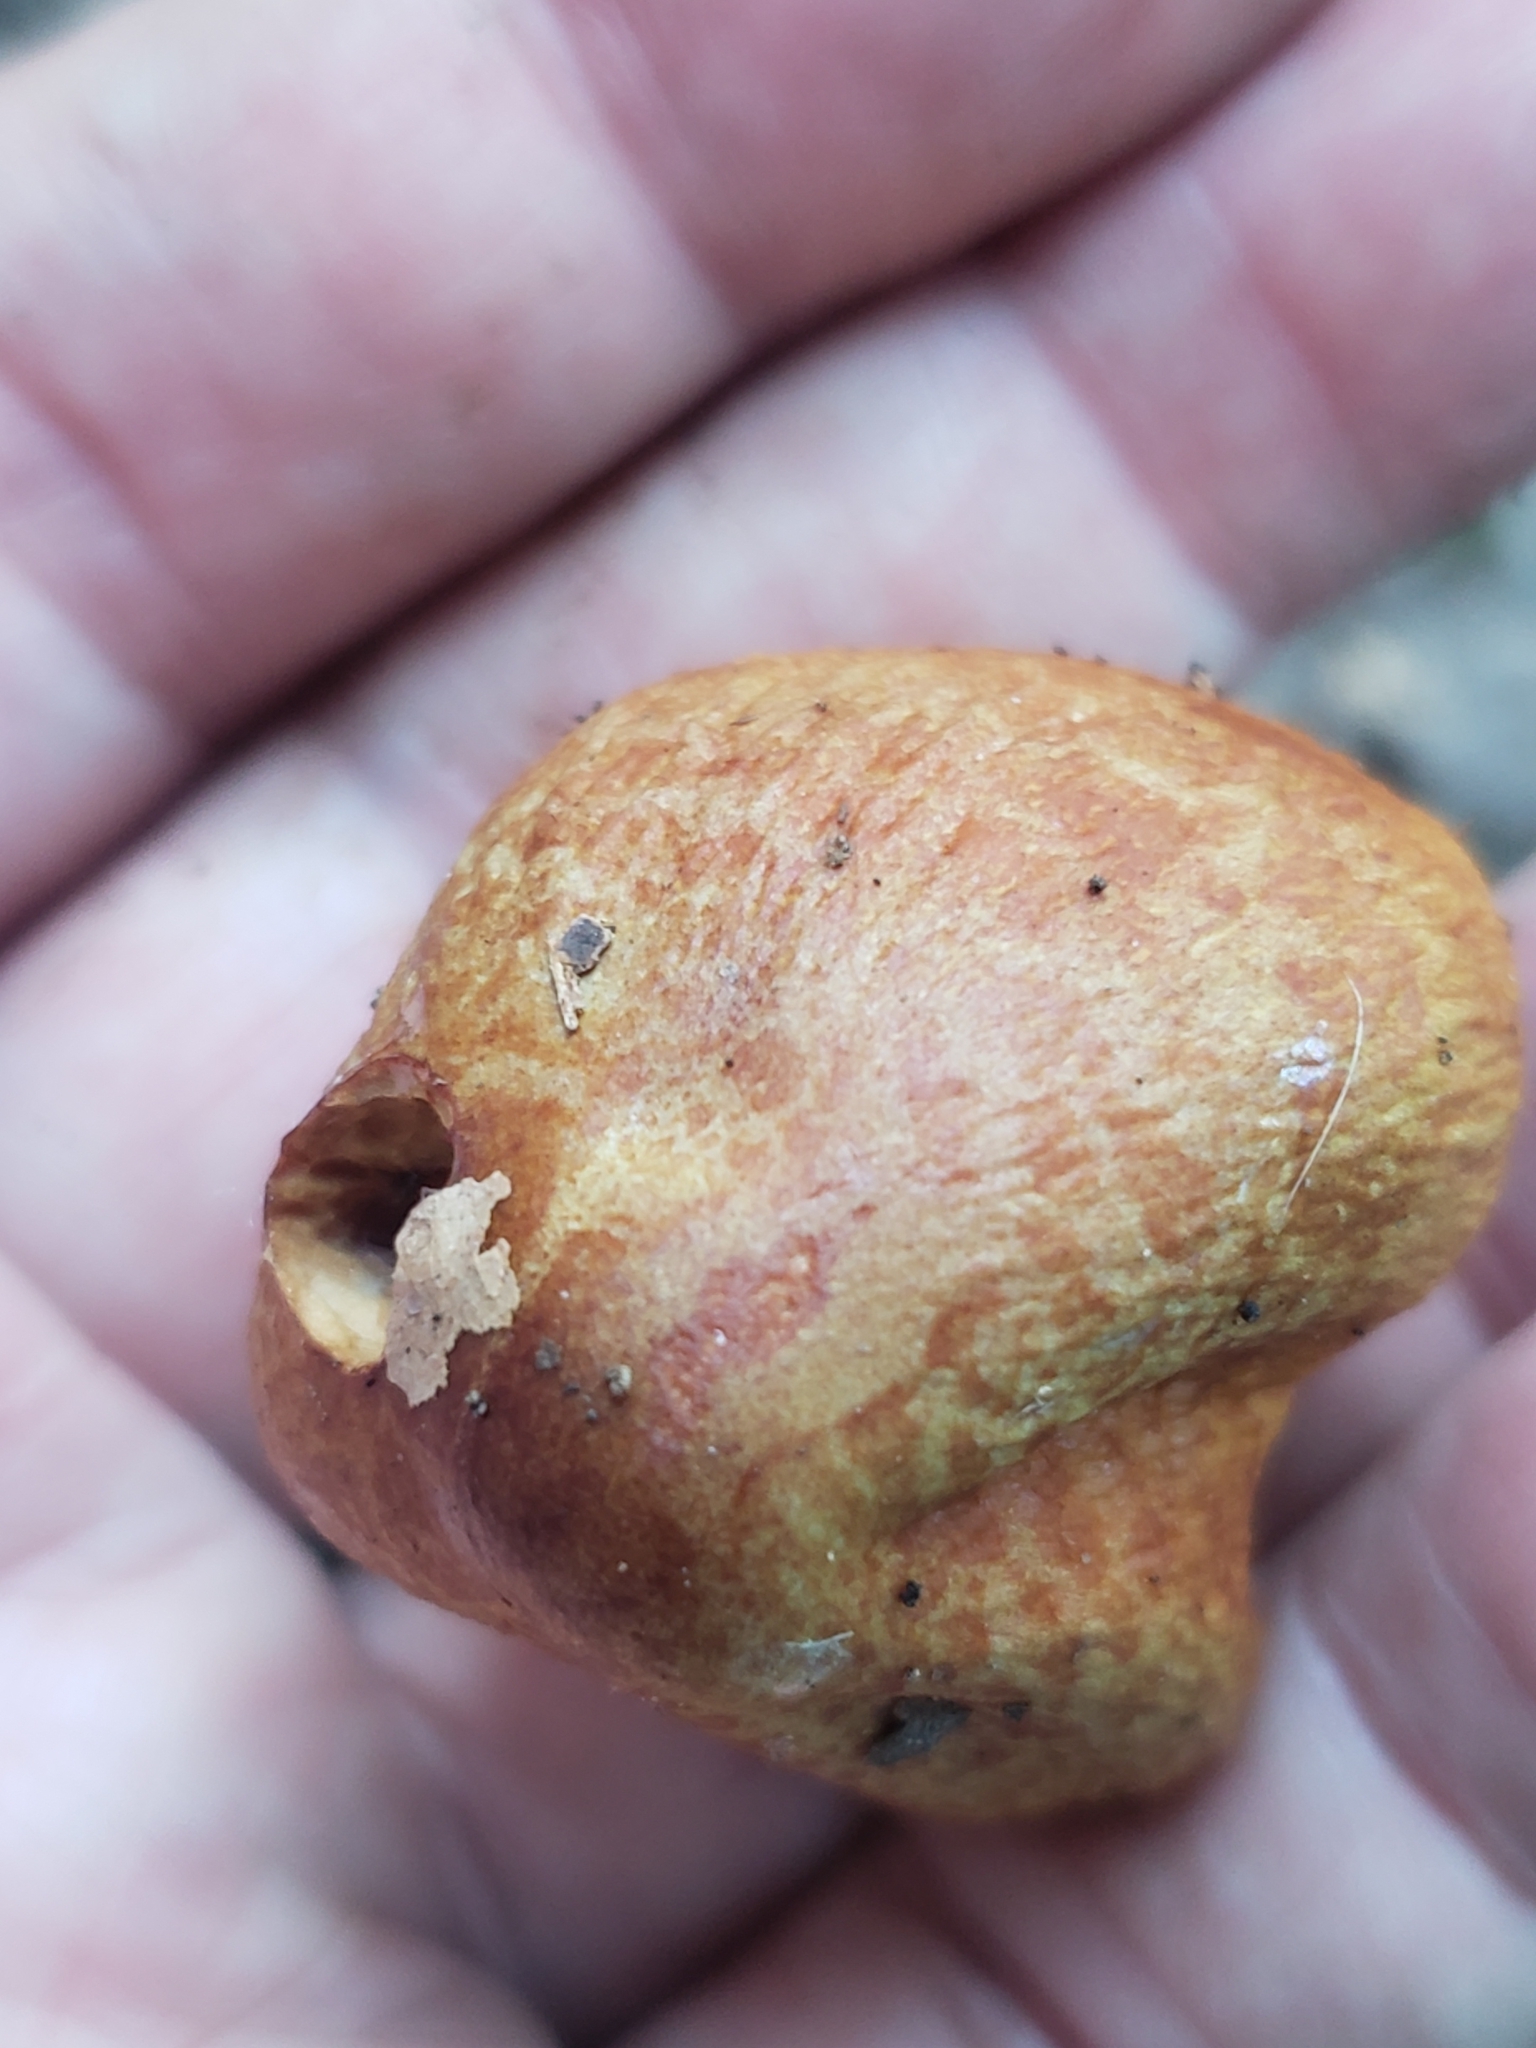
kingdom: Fungi
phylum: Basidiomycota
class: Agaricomycetes
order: Agaricales
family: Cortinariaceae
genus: Cortinarius
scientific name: Cortinarius corrugatus
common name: Wrinkled cortinarius
